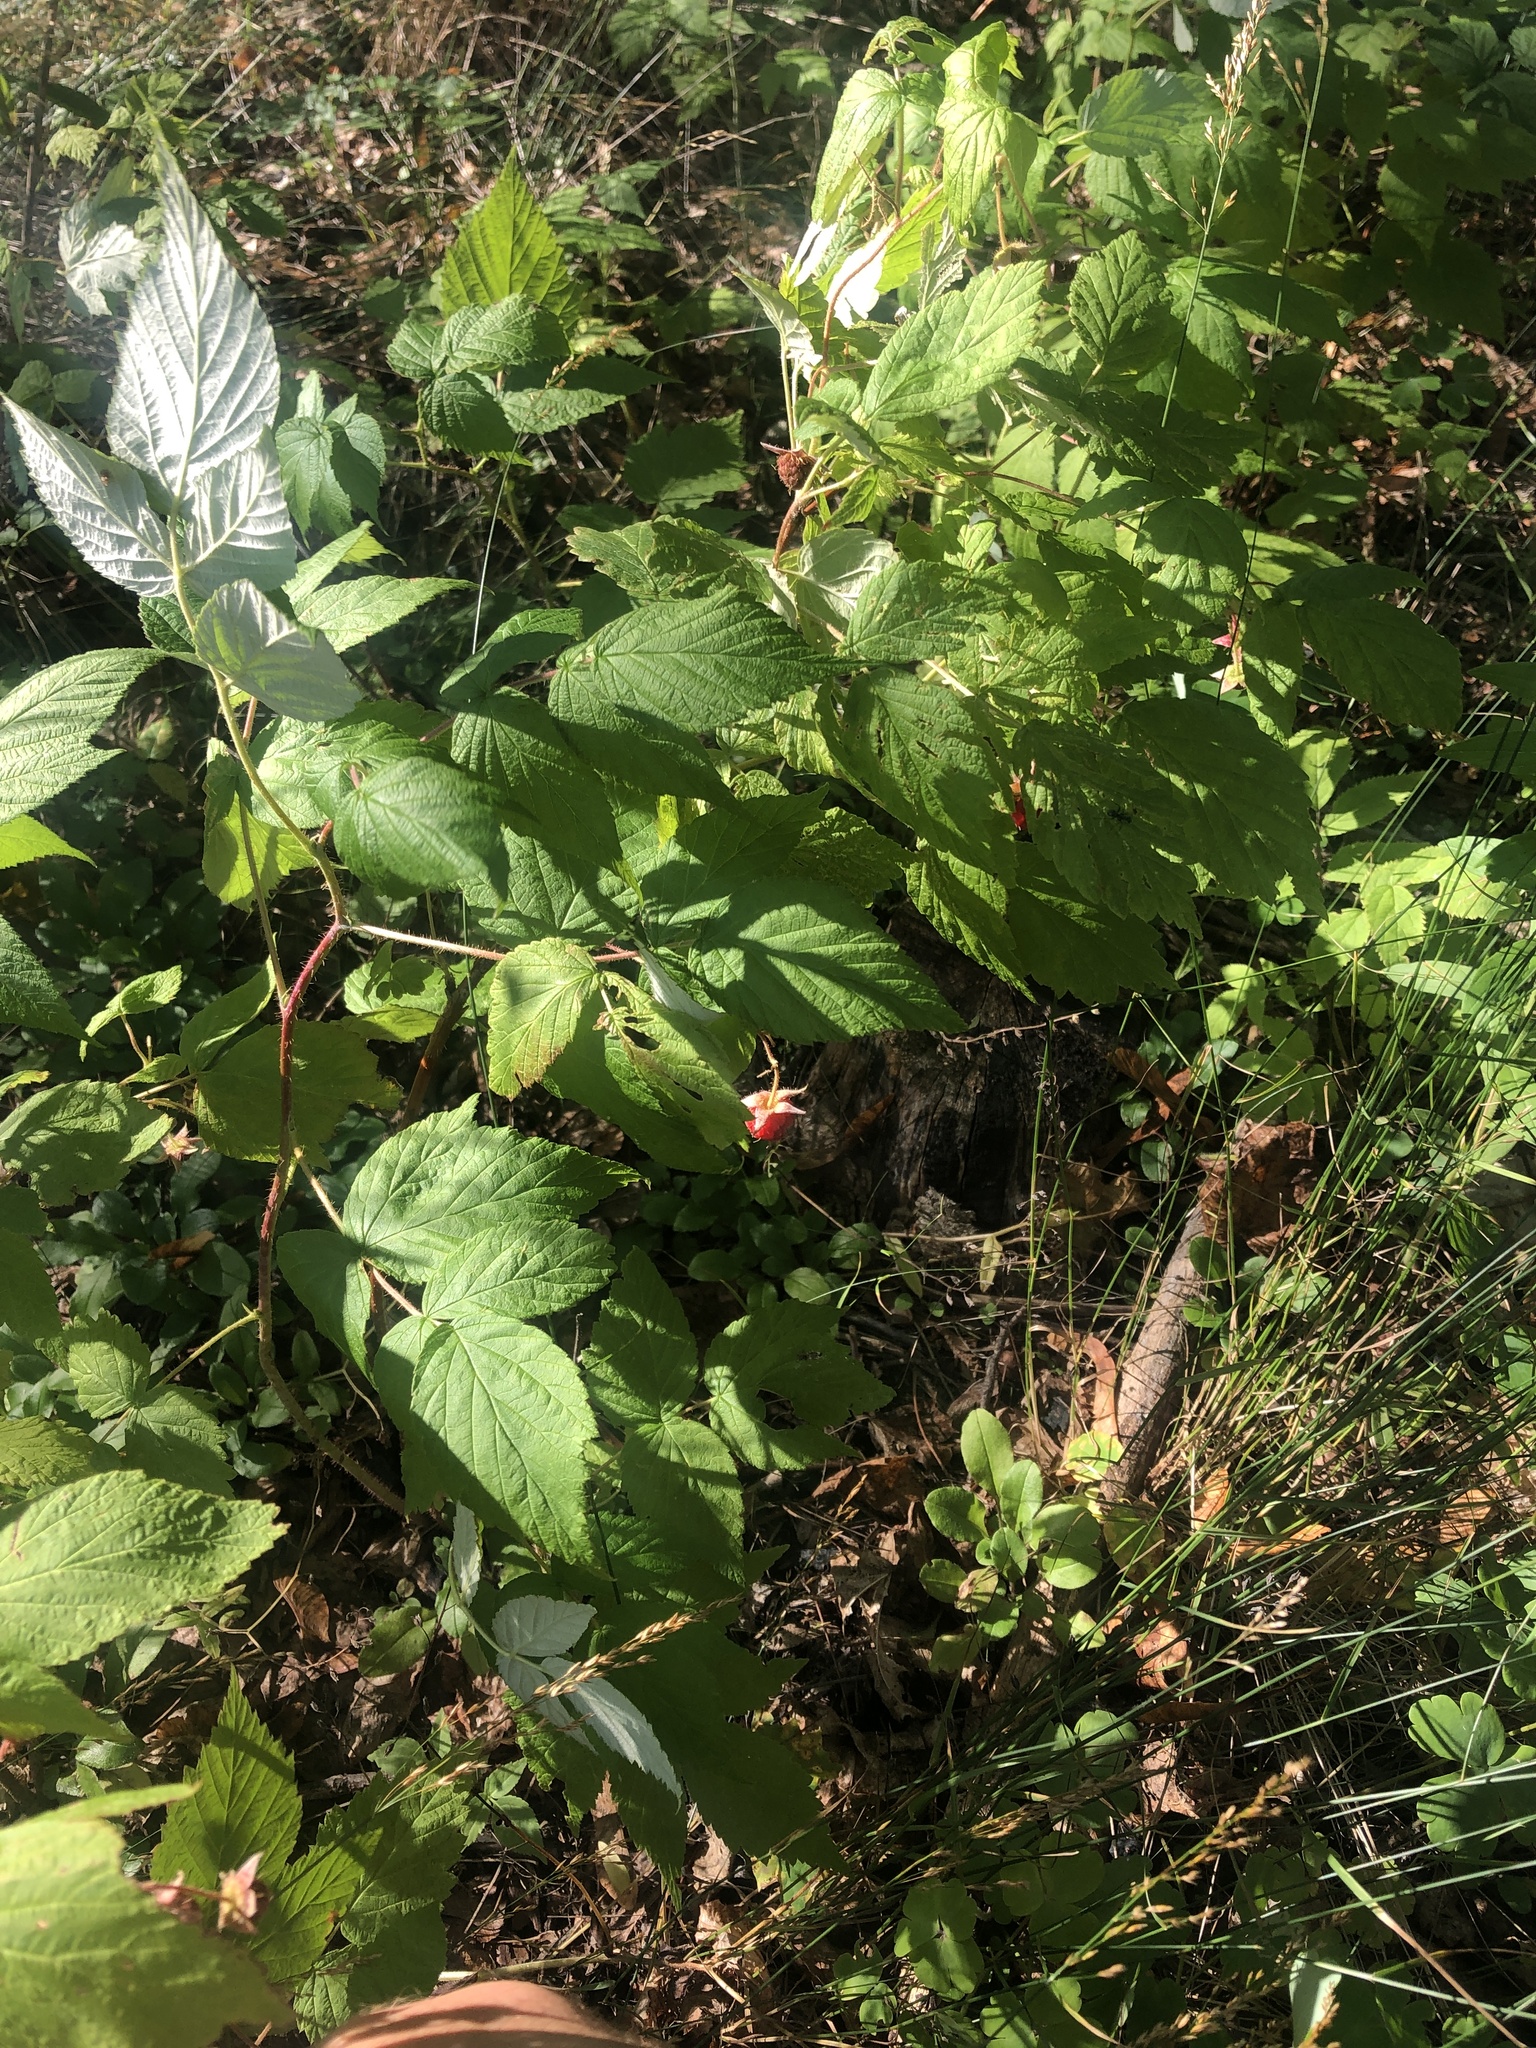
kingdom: Plantae
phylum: Tracheophyta
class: Magnoliopsida
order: Rosales
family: Rosaceae
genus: Rubus
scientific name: Rubus idaeus
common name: Raspberry
